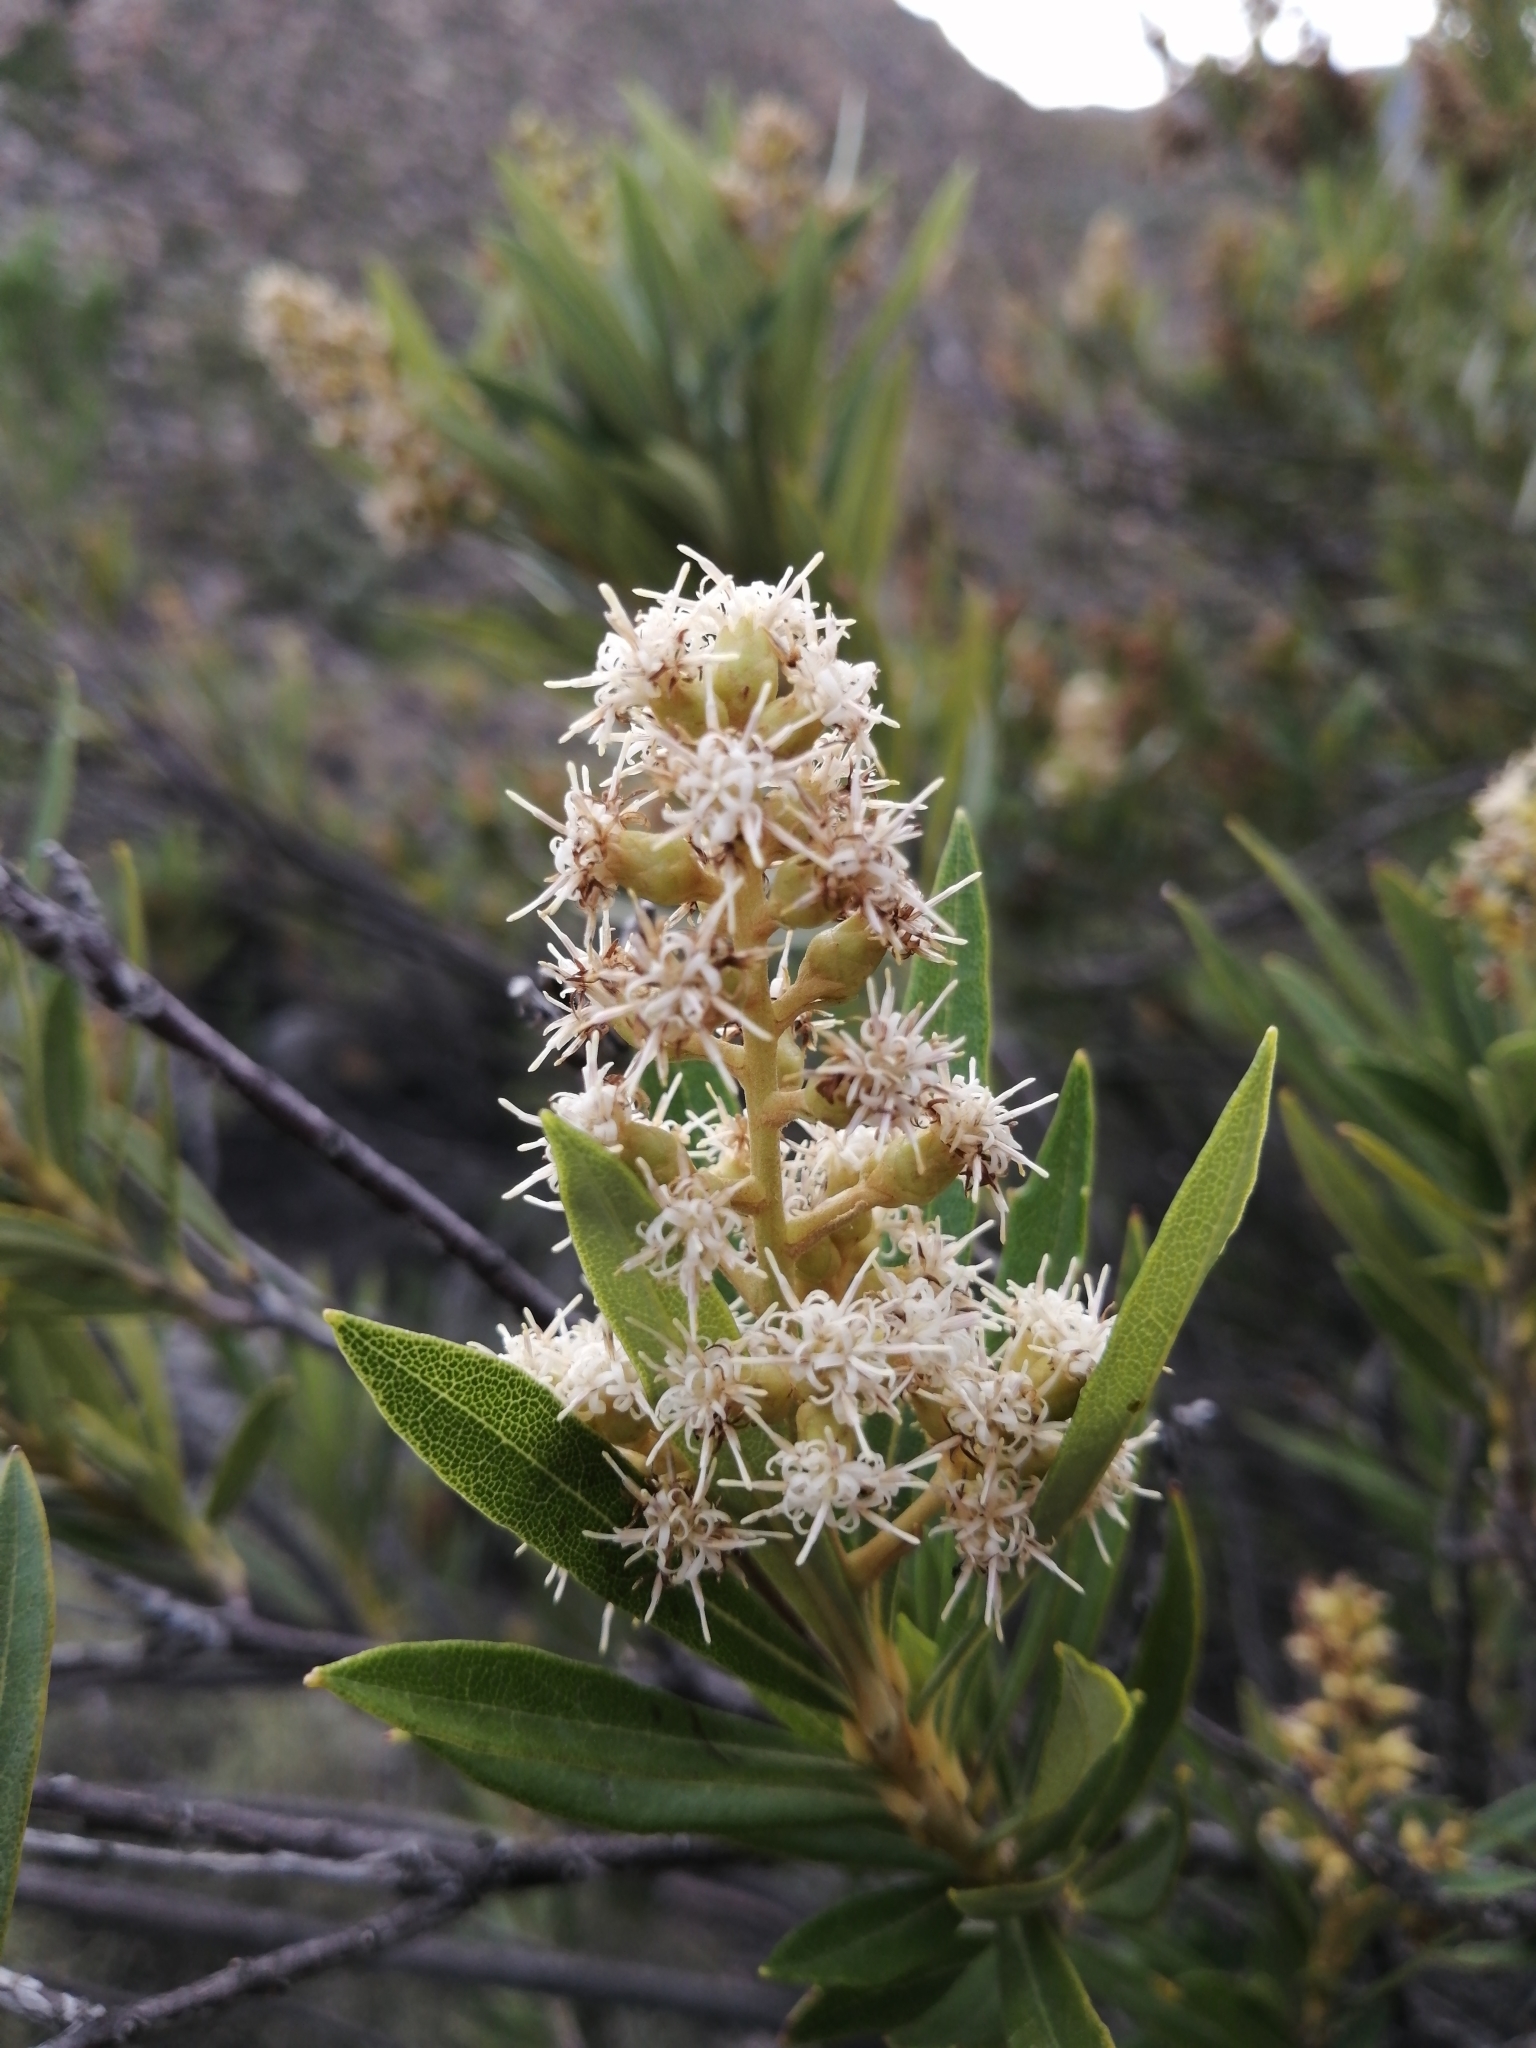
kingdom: Plantae
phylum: Tracheophyta
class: Magnoliopsida
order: Asterales
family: Asteraceae
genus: Brachylaena
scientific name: Brachylaena neriifolia
